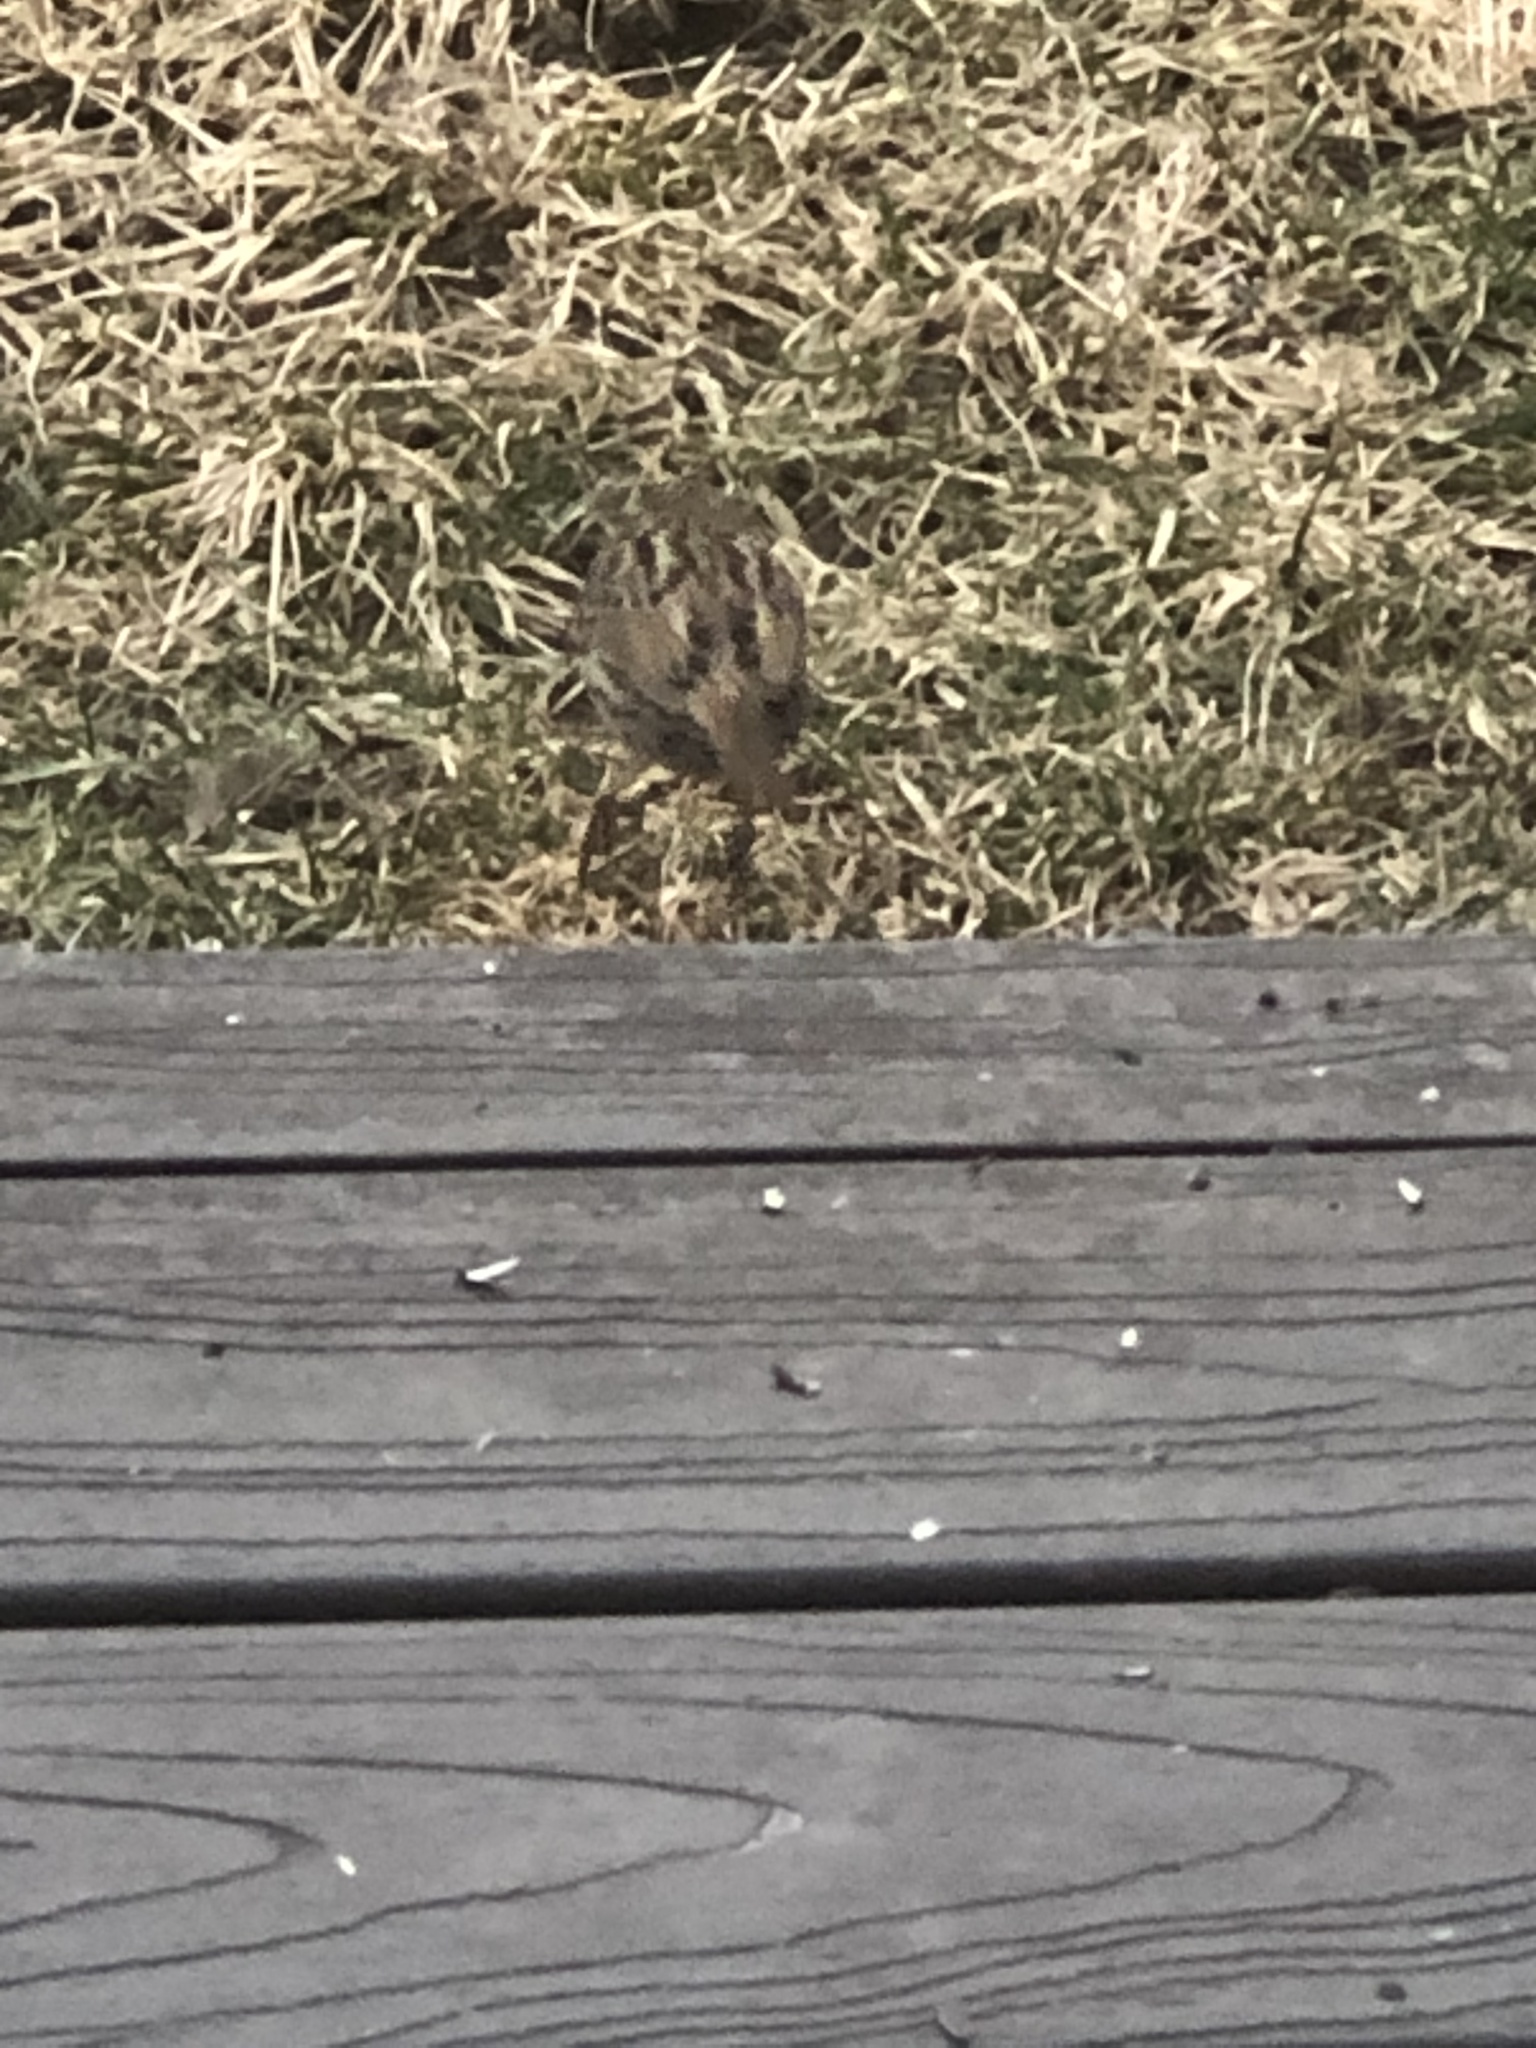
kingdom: Animalia
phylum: Chordata
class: Aves
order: Passeriformes
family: Passeridae
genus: Passer
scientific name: Passer domesticus
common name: House sparrow
